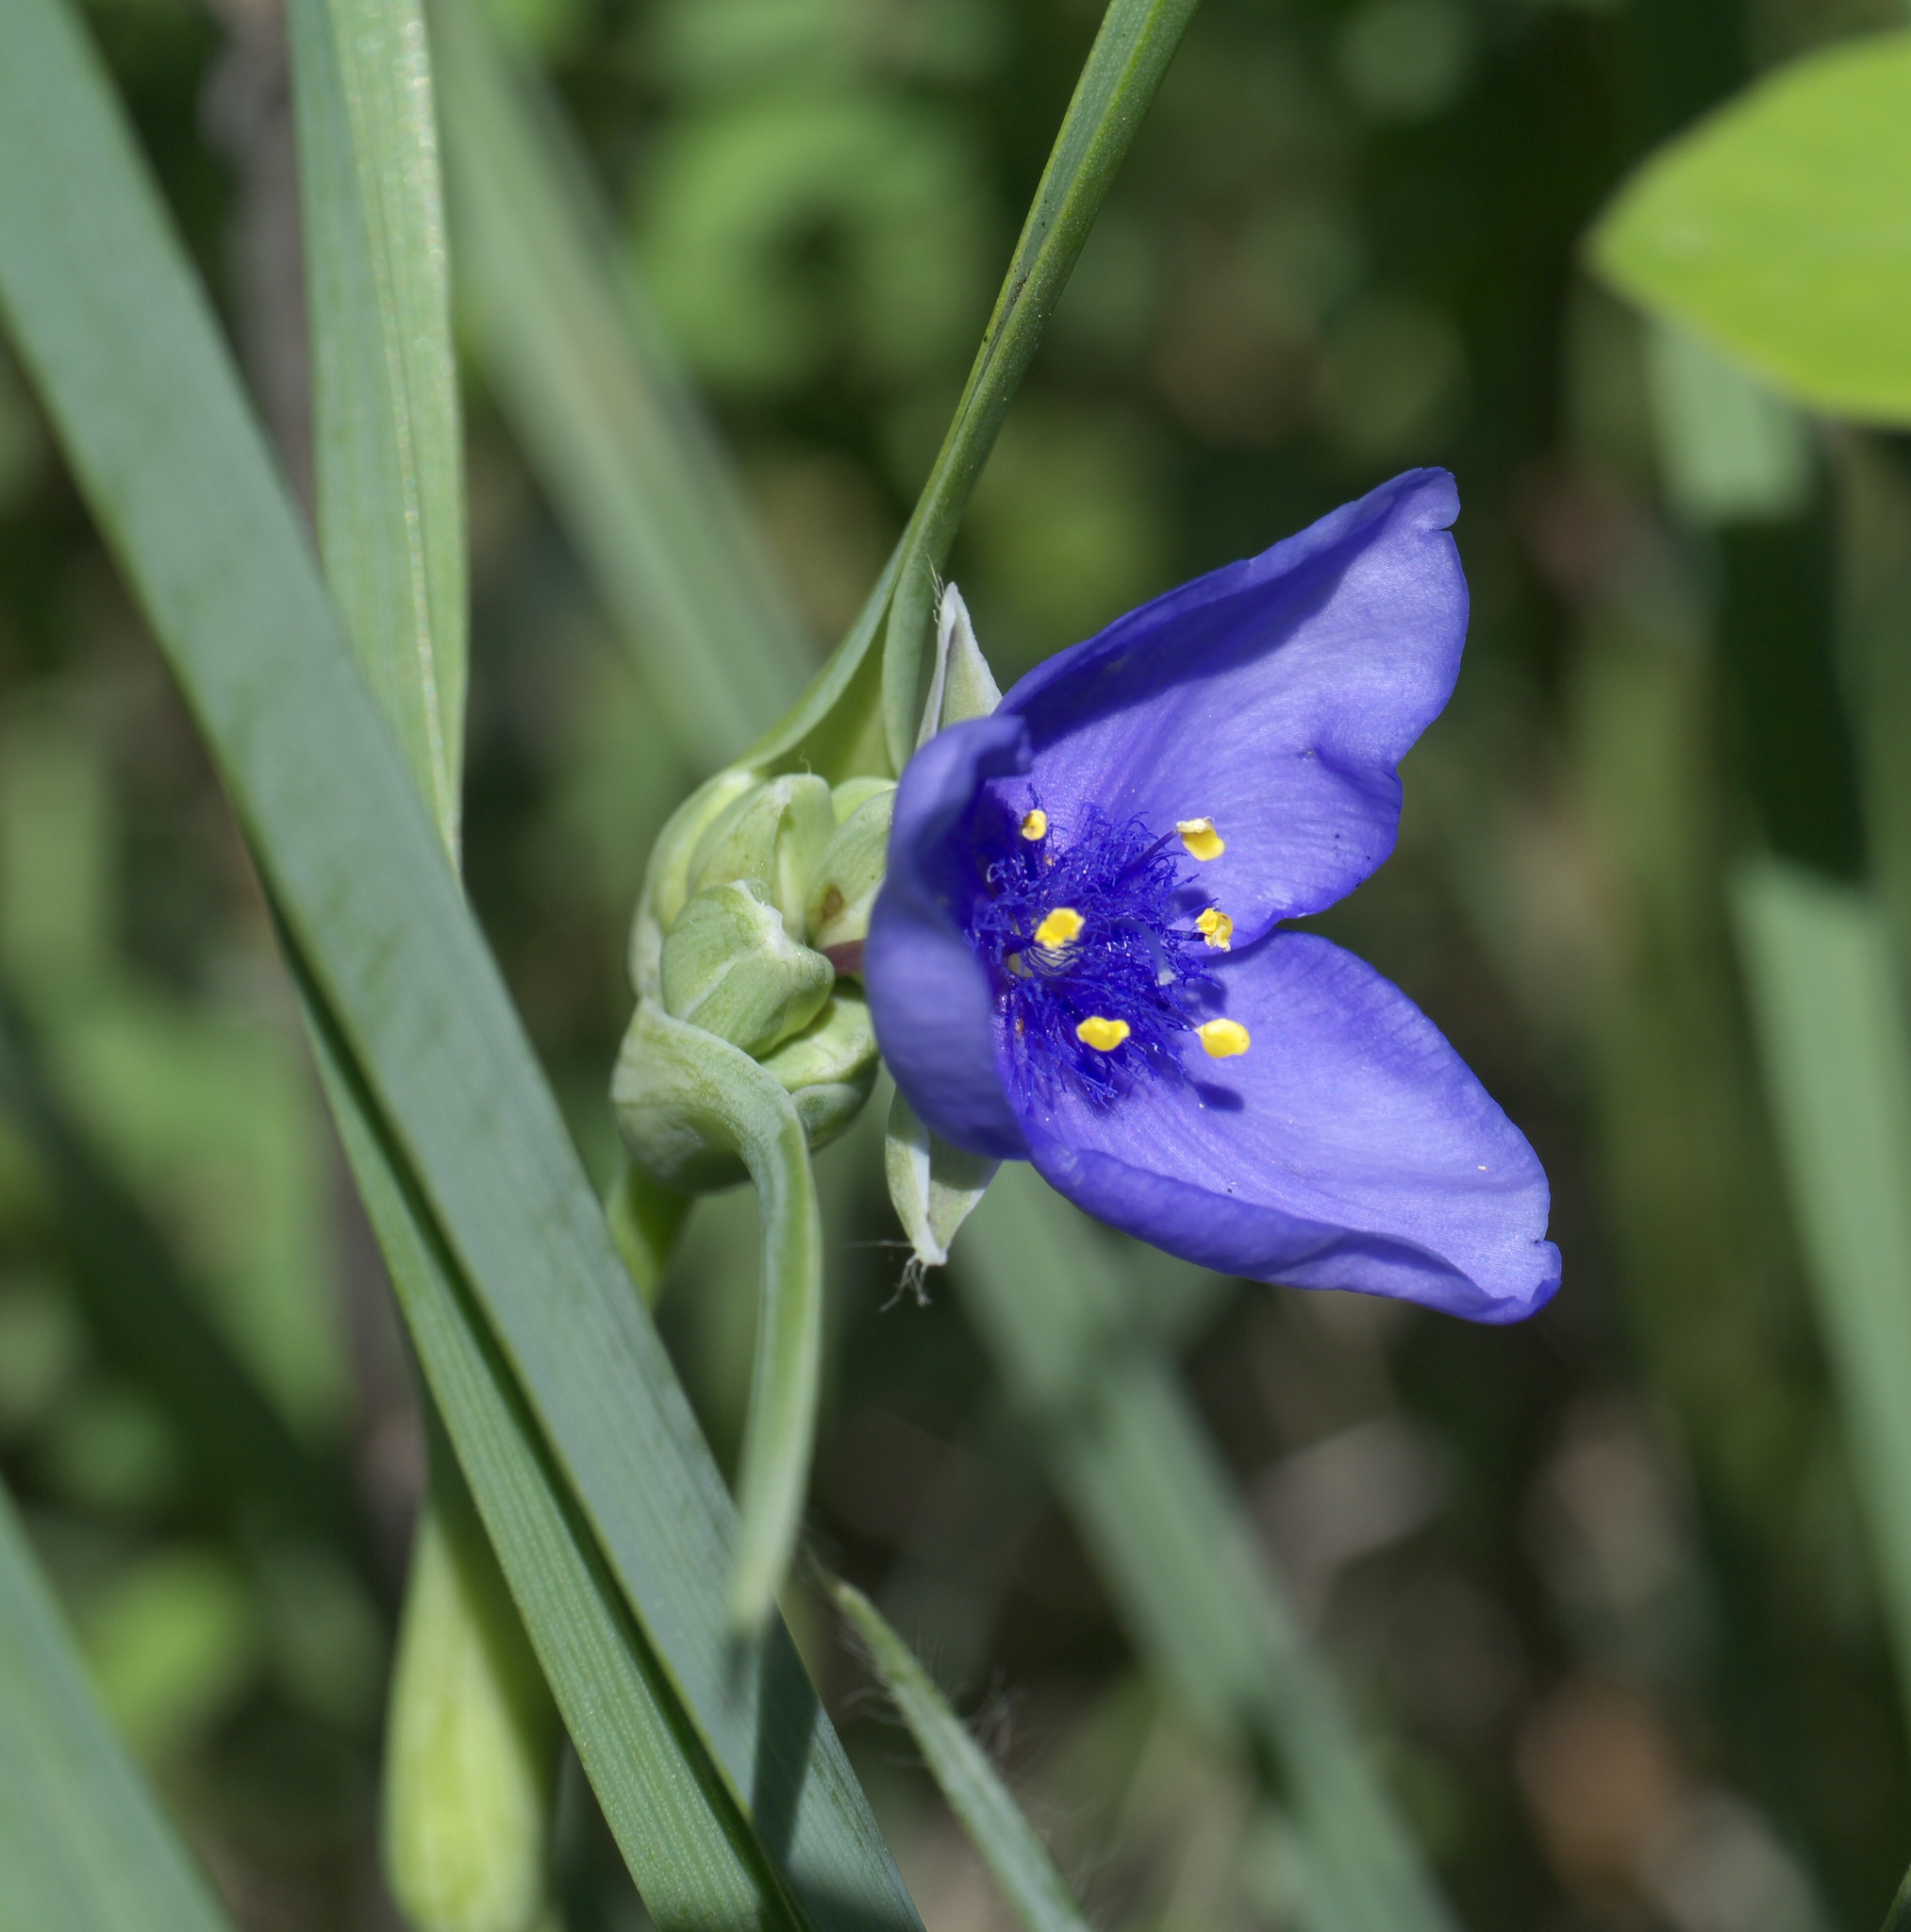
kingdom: Plantae
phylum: Tracheophyta
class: Liliopsida
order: Commelinales
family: Commelinaceae
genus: Tradescantia
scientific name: Tradescantia ohiensis
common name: Ohio spiderwort
